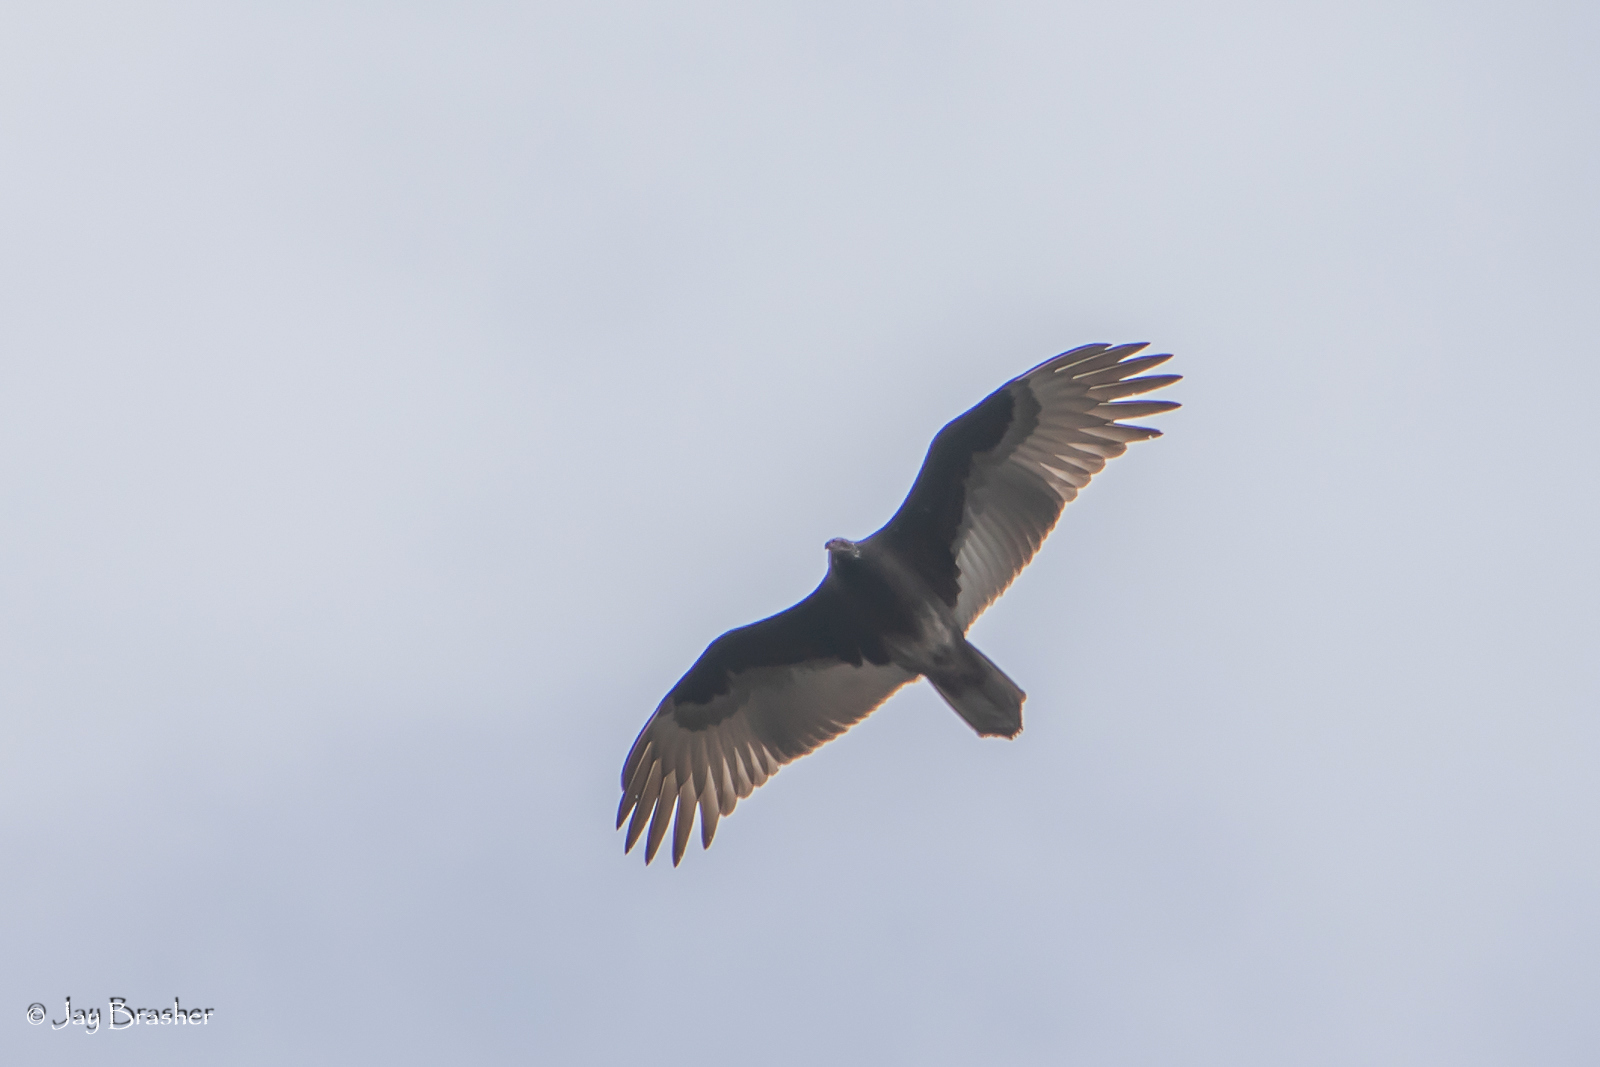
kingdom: Animalia
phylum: Chordata
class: Aves
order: Accipitriformes
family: Cathartidae
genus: Cathartes
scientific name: Cathartes aura
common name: Turkey vulture
